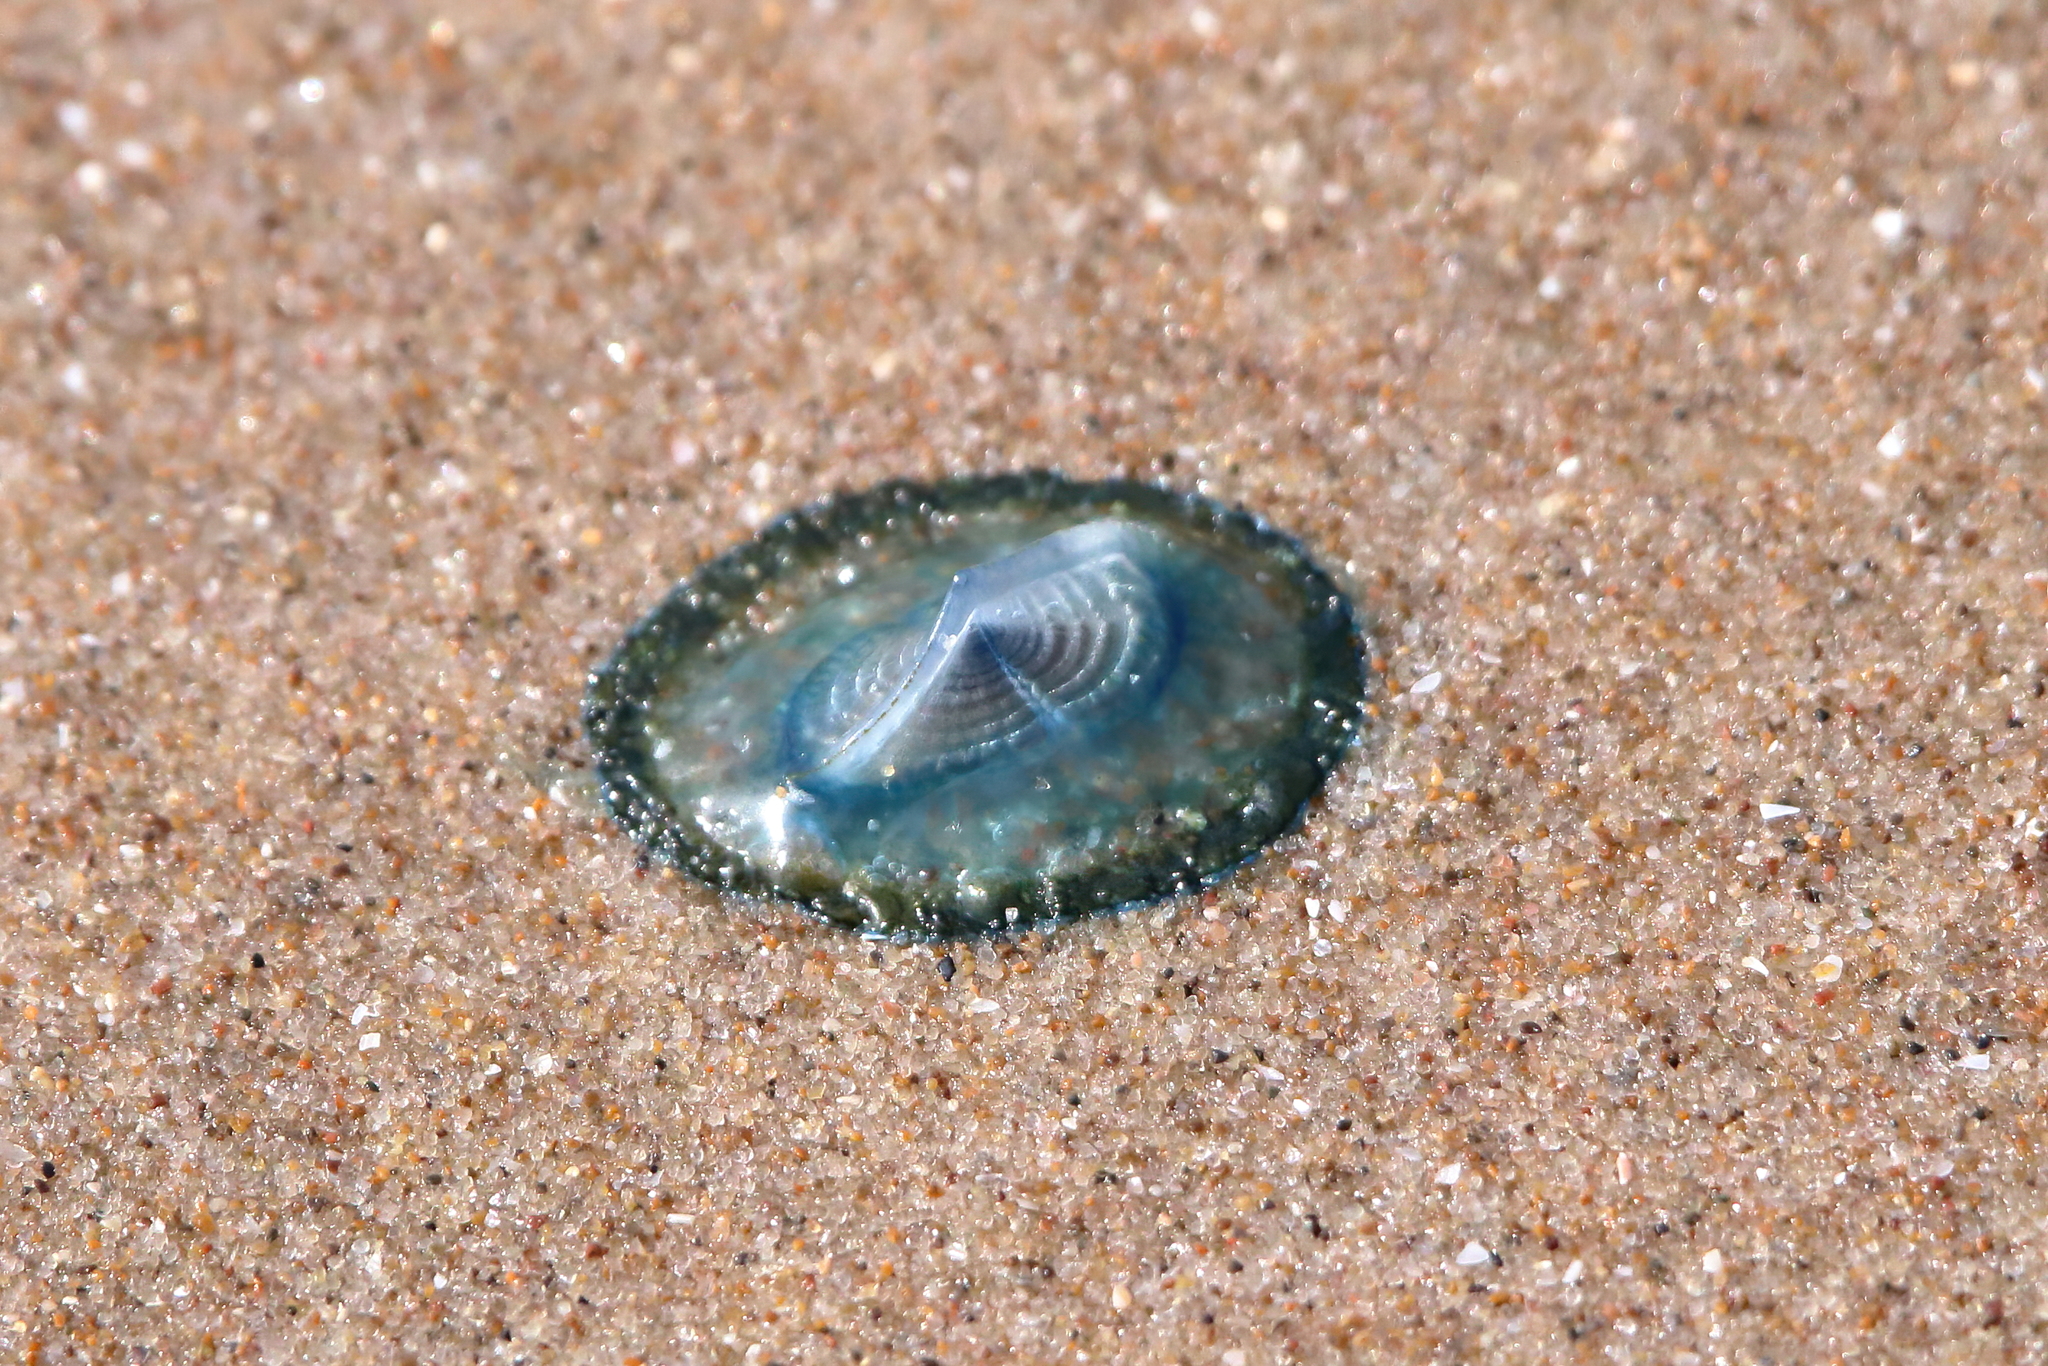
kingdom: Animalia
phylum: Cnidaria
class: Hydrozoa
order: Anthoathecata
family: Porpitidae
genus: Velella
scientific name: Velella velella
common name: By-the-wind-sailor
